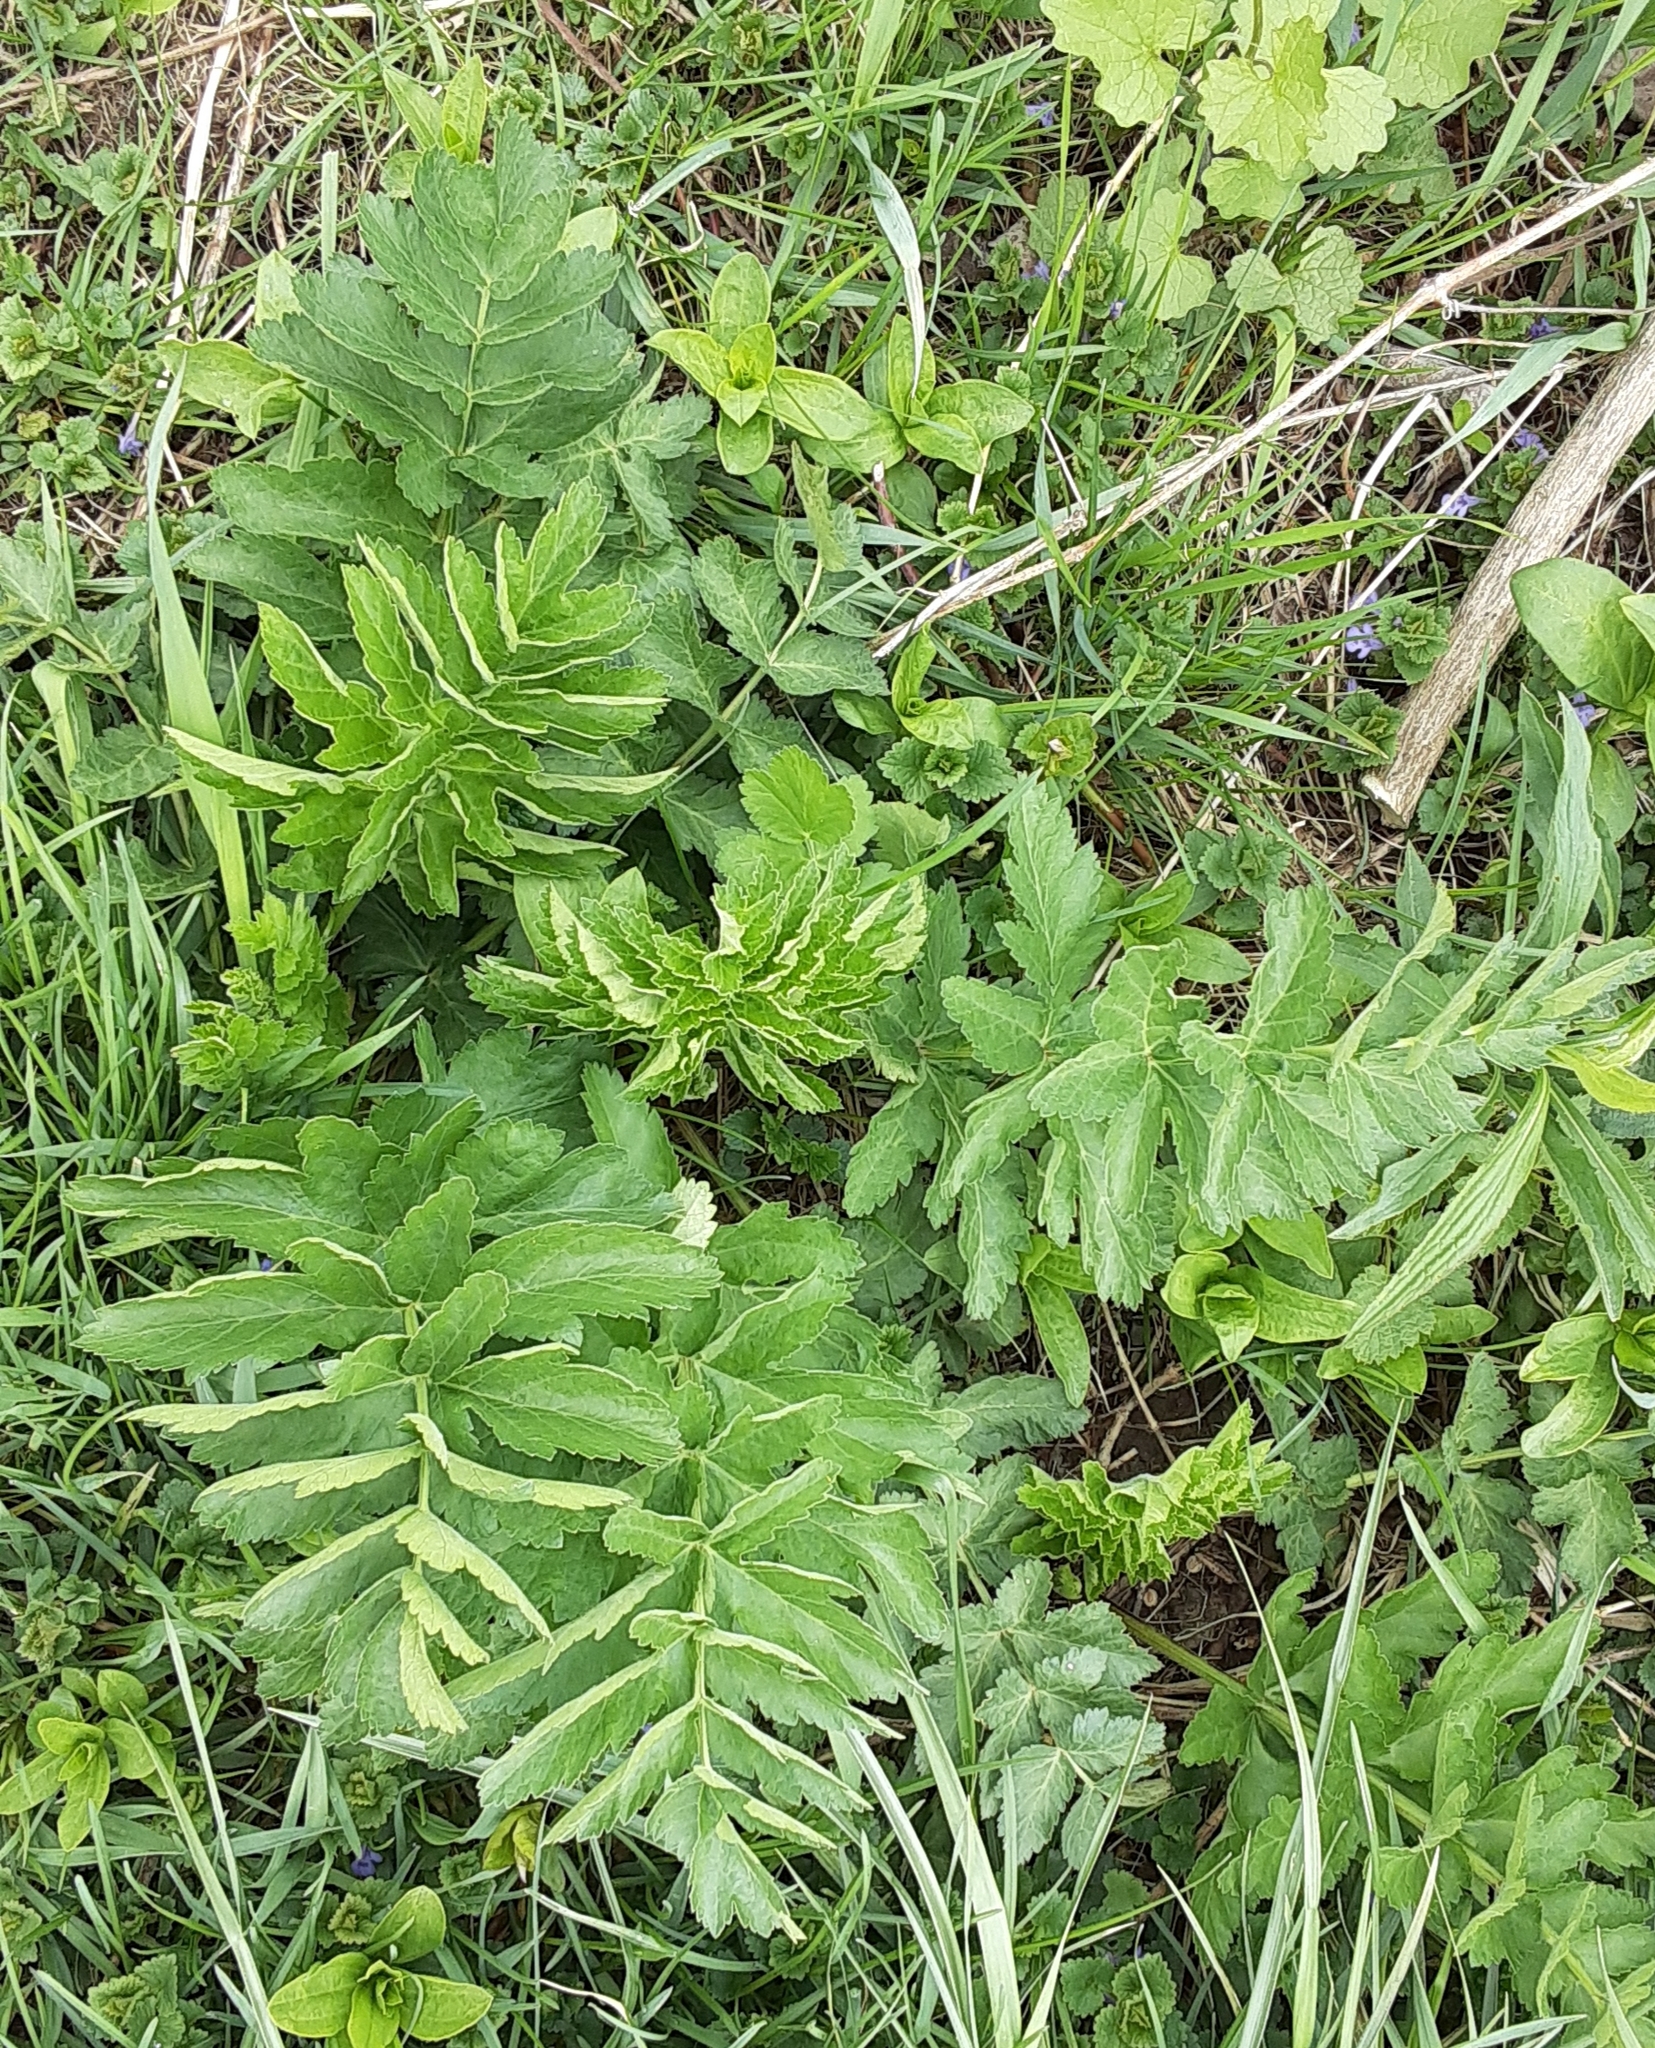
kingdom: Plantae
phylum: Tracheophyta
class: Magnoliopsida
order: Apiales
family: Apiaceae
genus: Pastinaca
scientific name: Pastinaca sativa
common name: Wild parsnip
